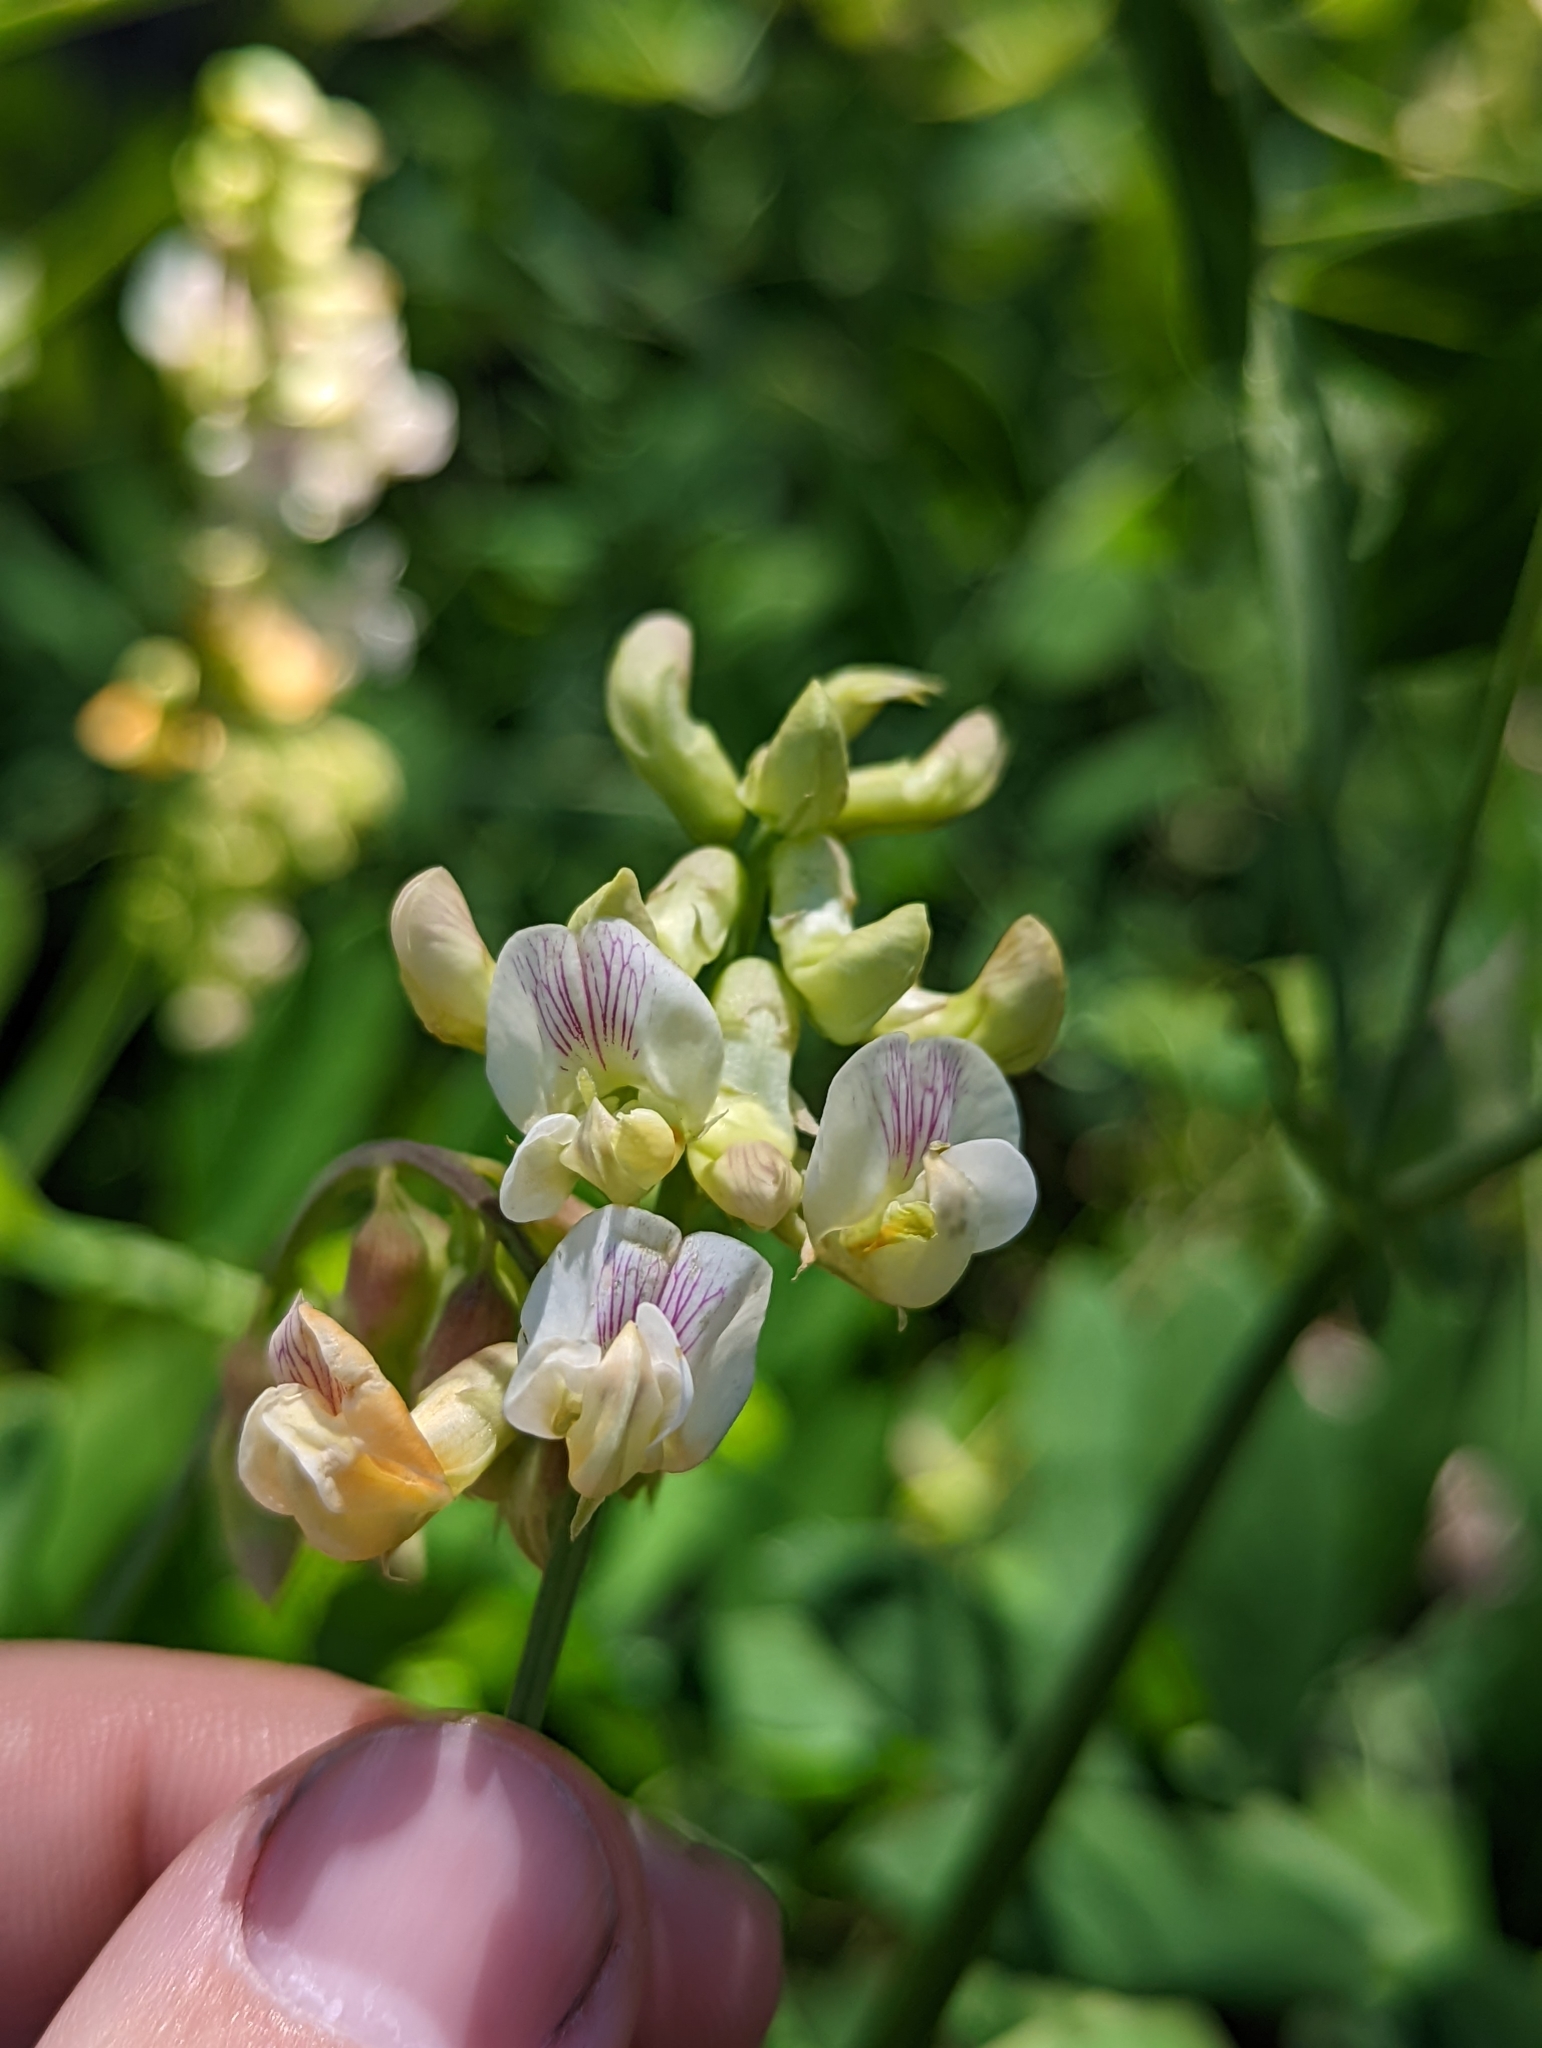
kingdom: Plantae
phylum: Tracheophyta
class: Magnoliopsida
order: Fabales
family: Fabaceae
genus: Lathyrus
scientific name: Lathyrus delnorticus
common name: Del norte-pea
